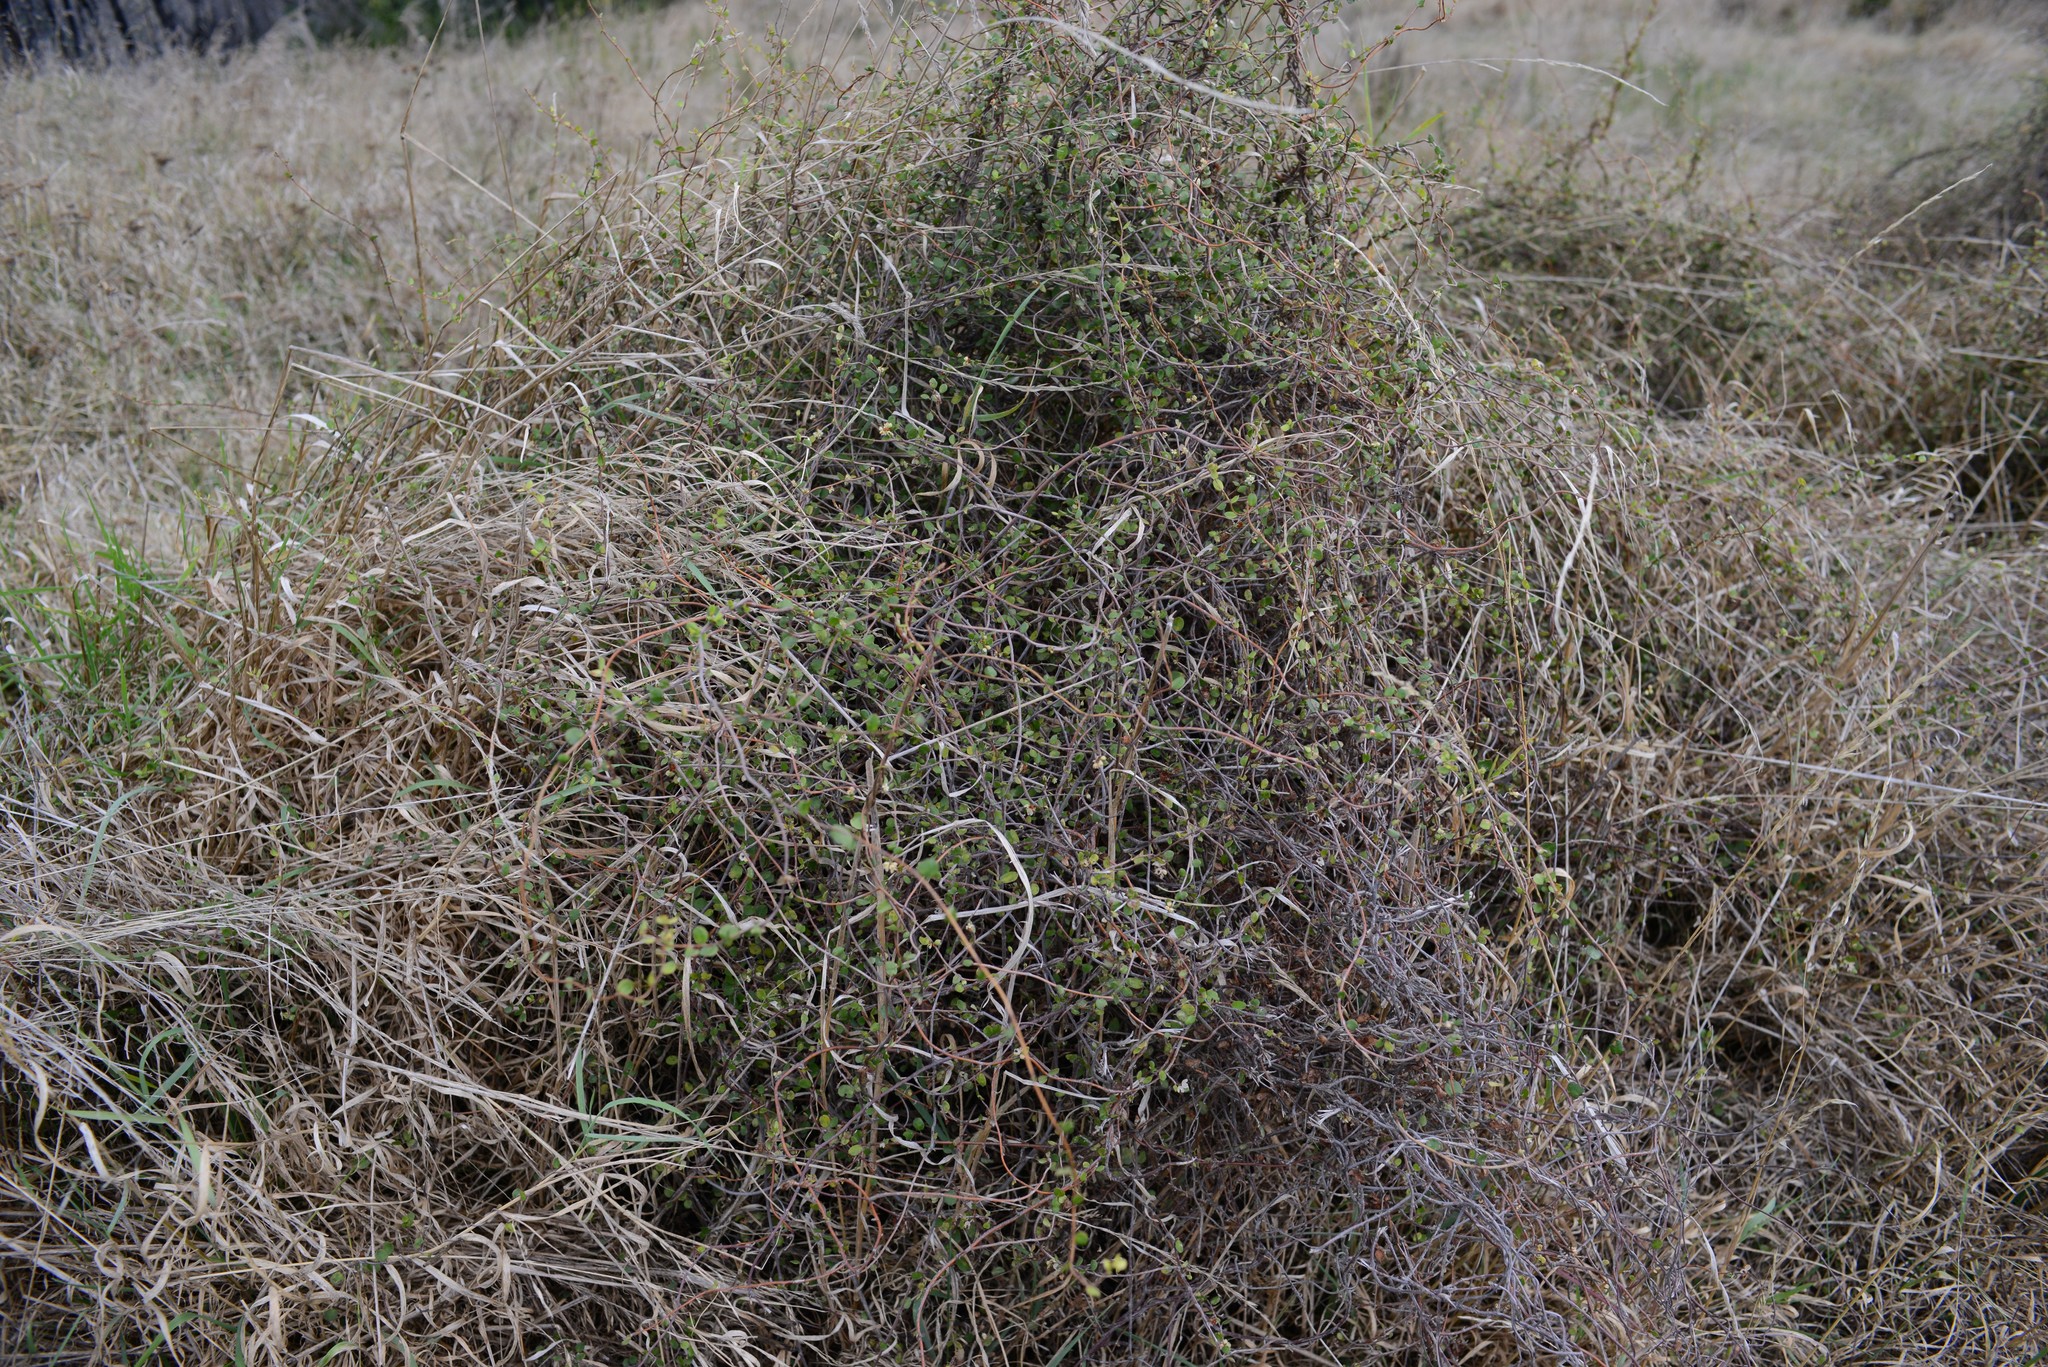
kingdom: Plantae
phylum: Tracheophyta
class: Magnoliopsida
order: Caryophyllales
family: Polygonaceae
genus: Muehlenbeckia
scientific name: Muehlenbeckia complexa
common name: Wireplant
